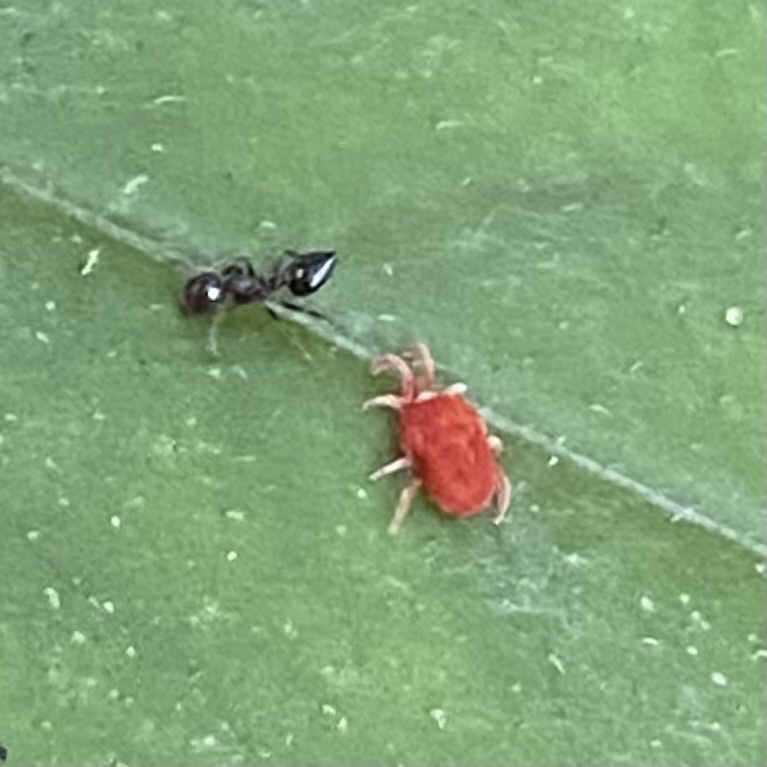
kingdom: Animalia
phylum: Arthropoda
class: Insecta
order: Hymenoptera
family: Formicidae
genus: Crematogaster
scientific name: Crematogaster
